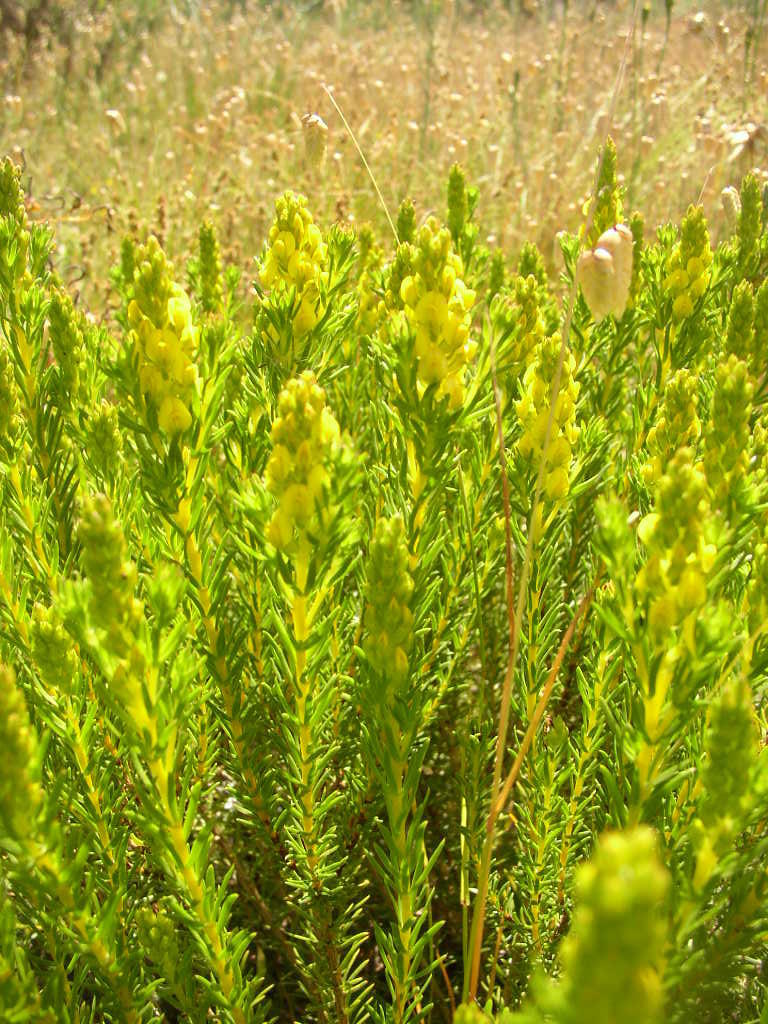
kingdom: Plantae
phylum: Tracheophyta
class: Magnoliopsida
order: Fabales
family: Fabaceae
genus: Aspalathus
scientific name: Aspalathus callosa
